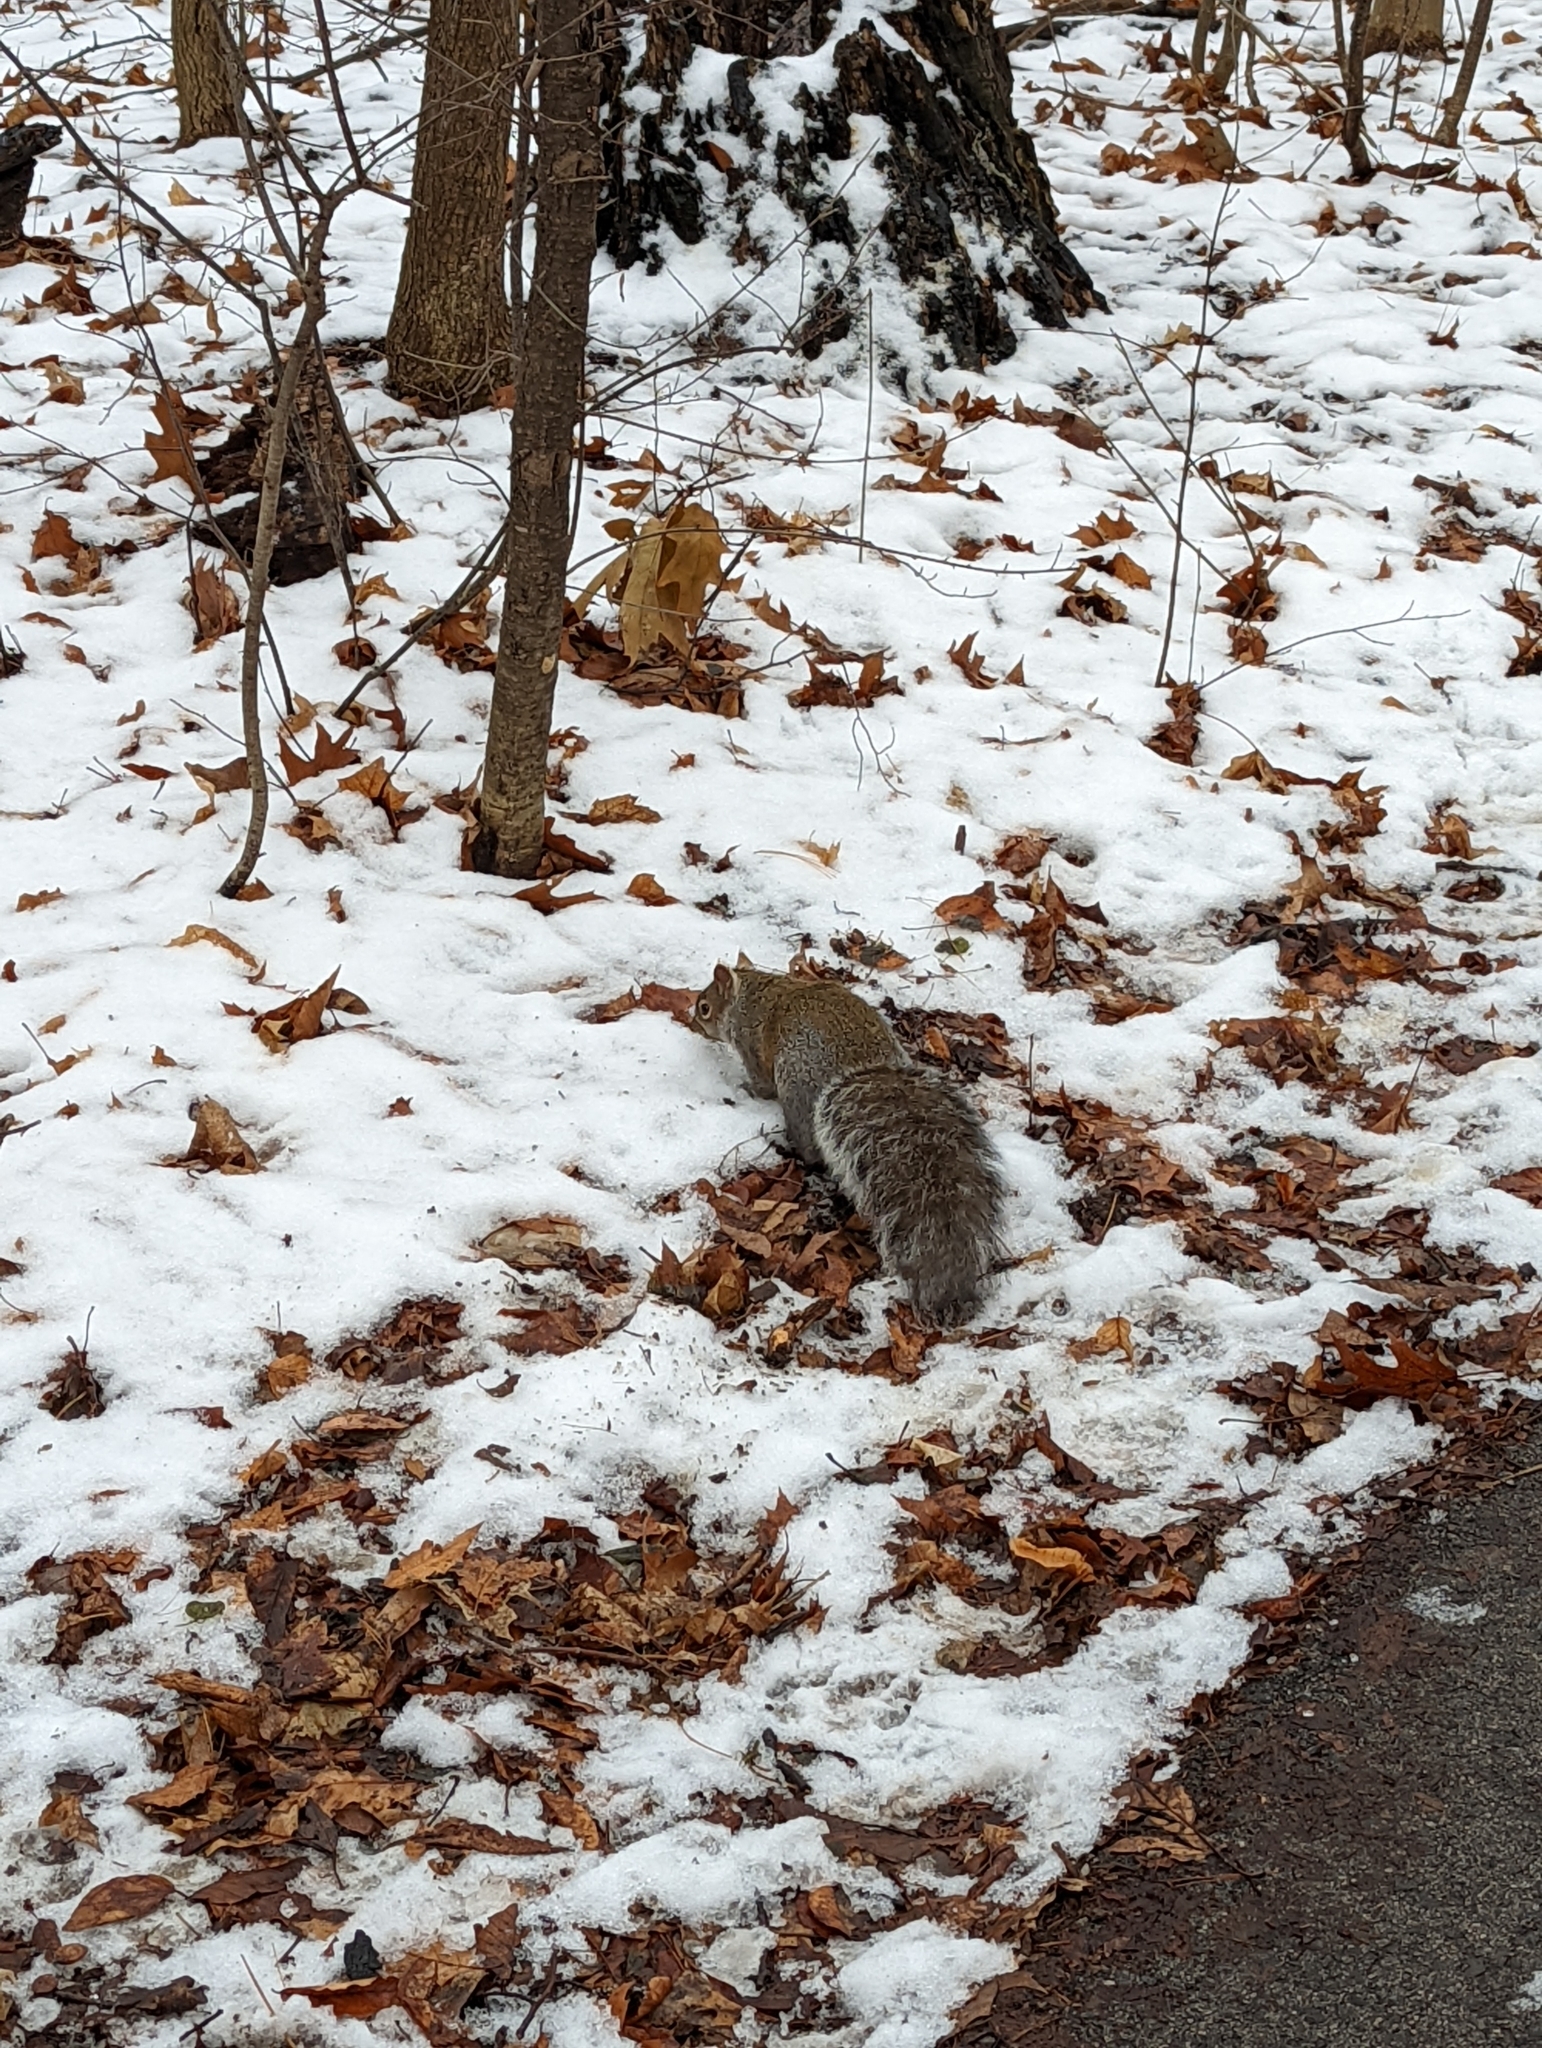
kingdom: Animalia
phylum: Chordata
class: Mammalia
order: Rodentia
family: Sciuridae
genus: Sciurus
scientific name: Sciurus carolinensis
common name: Eastern gray squirrel
